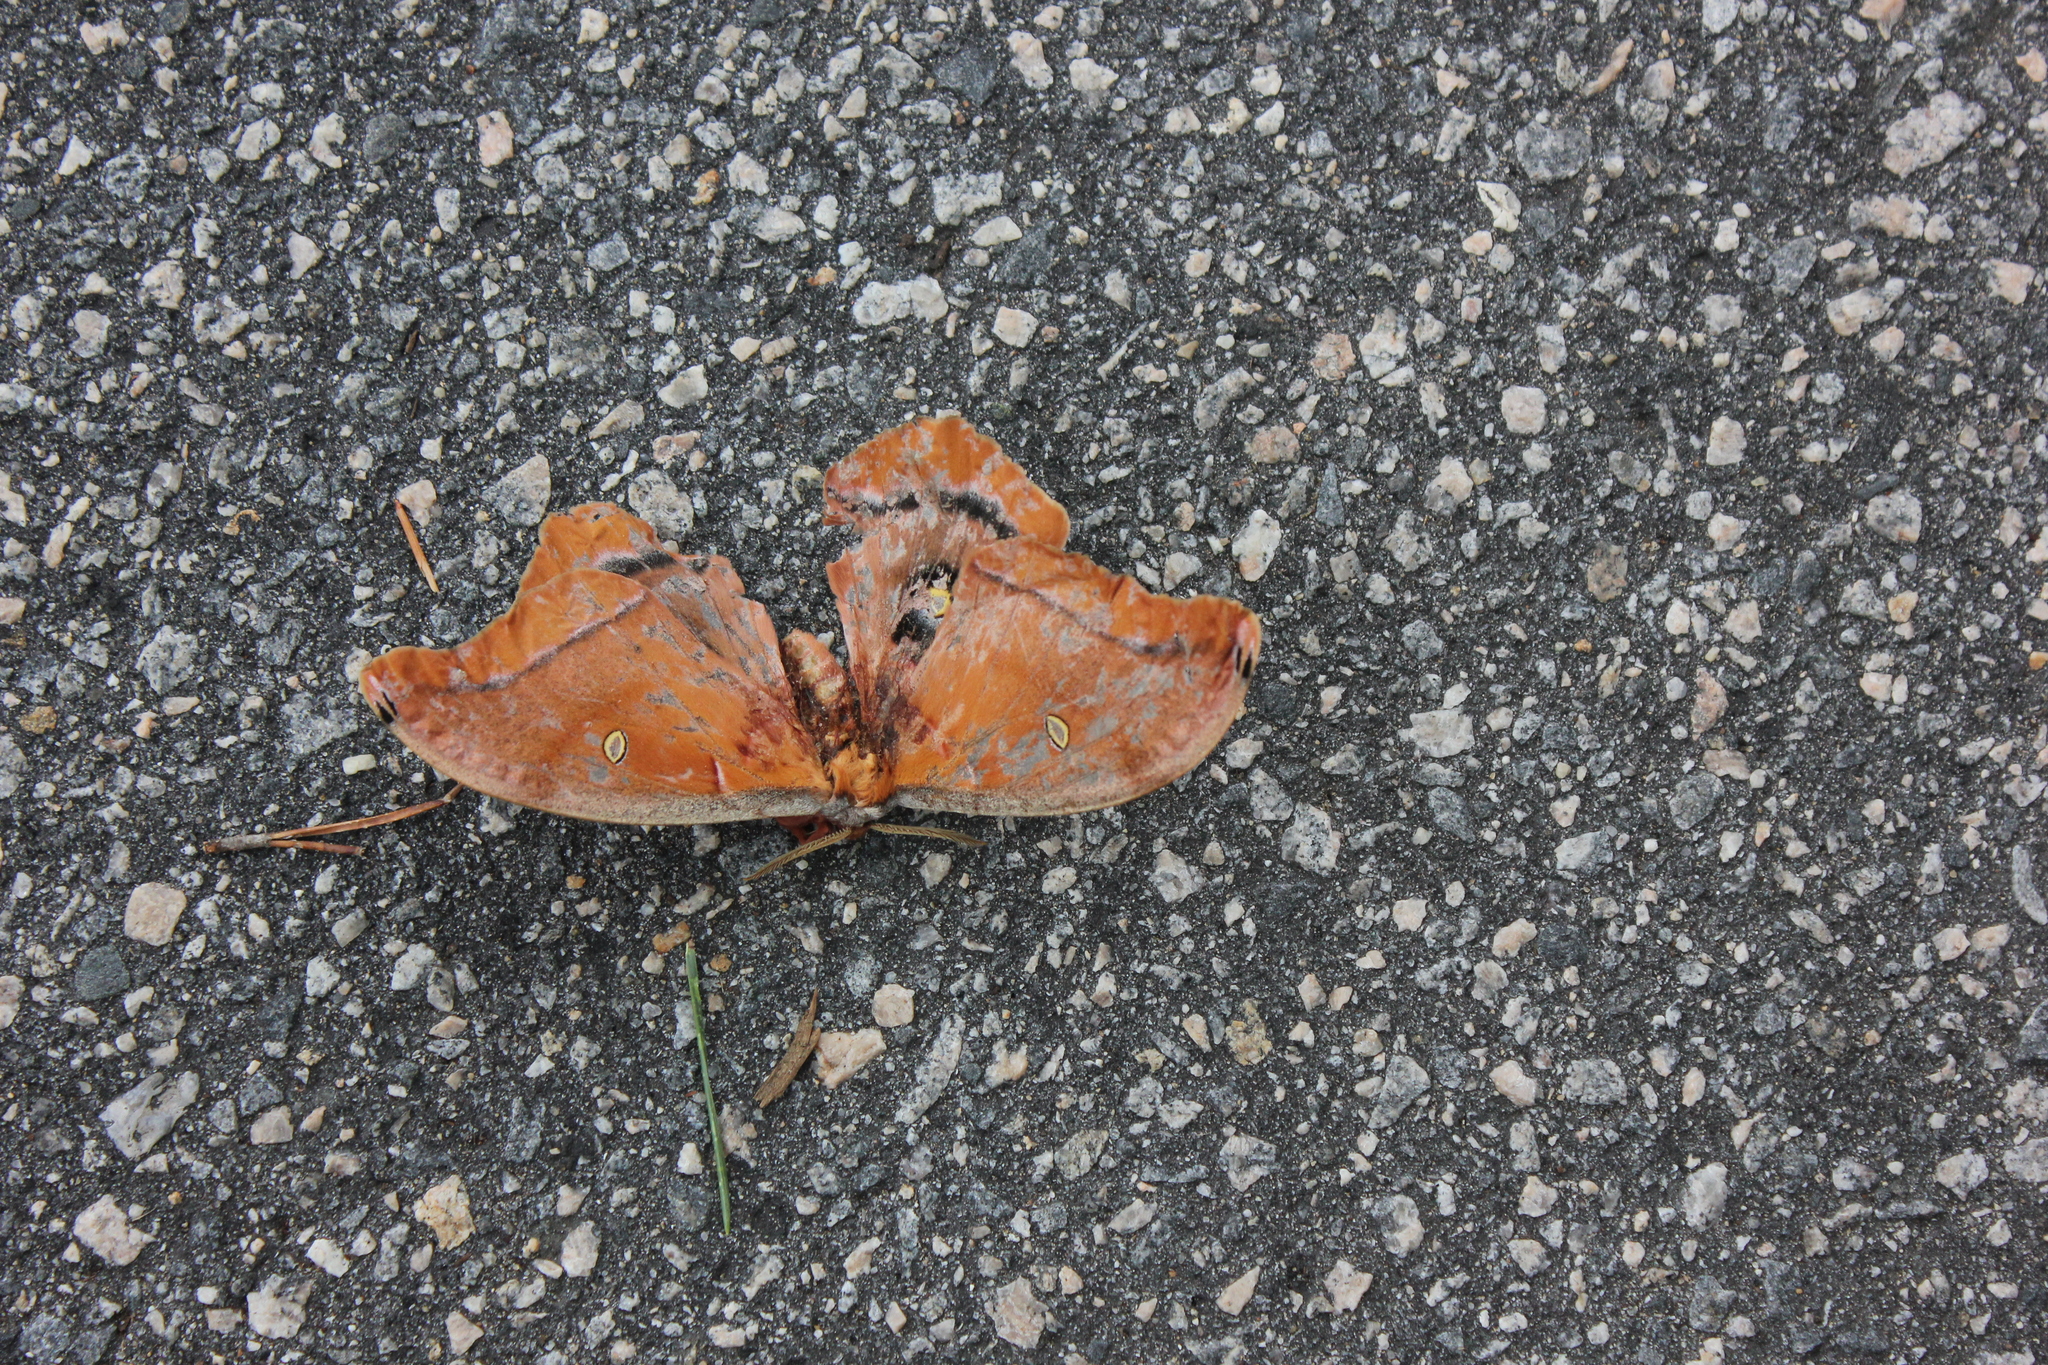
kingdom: Animalia
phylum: Arthropoda
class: Insecta
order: Lepidoptera
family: Saturniidae
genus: Antheraea
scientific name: Antheraea polyphemus
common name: Polyphemus moth
